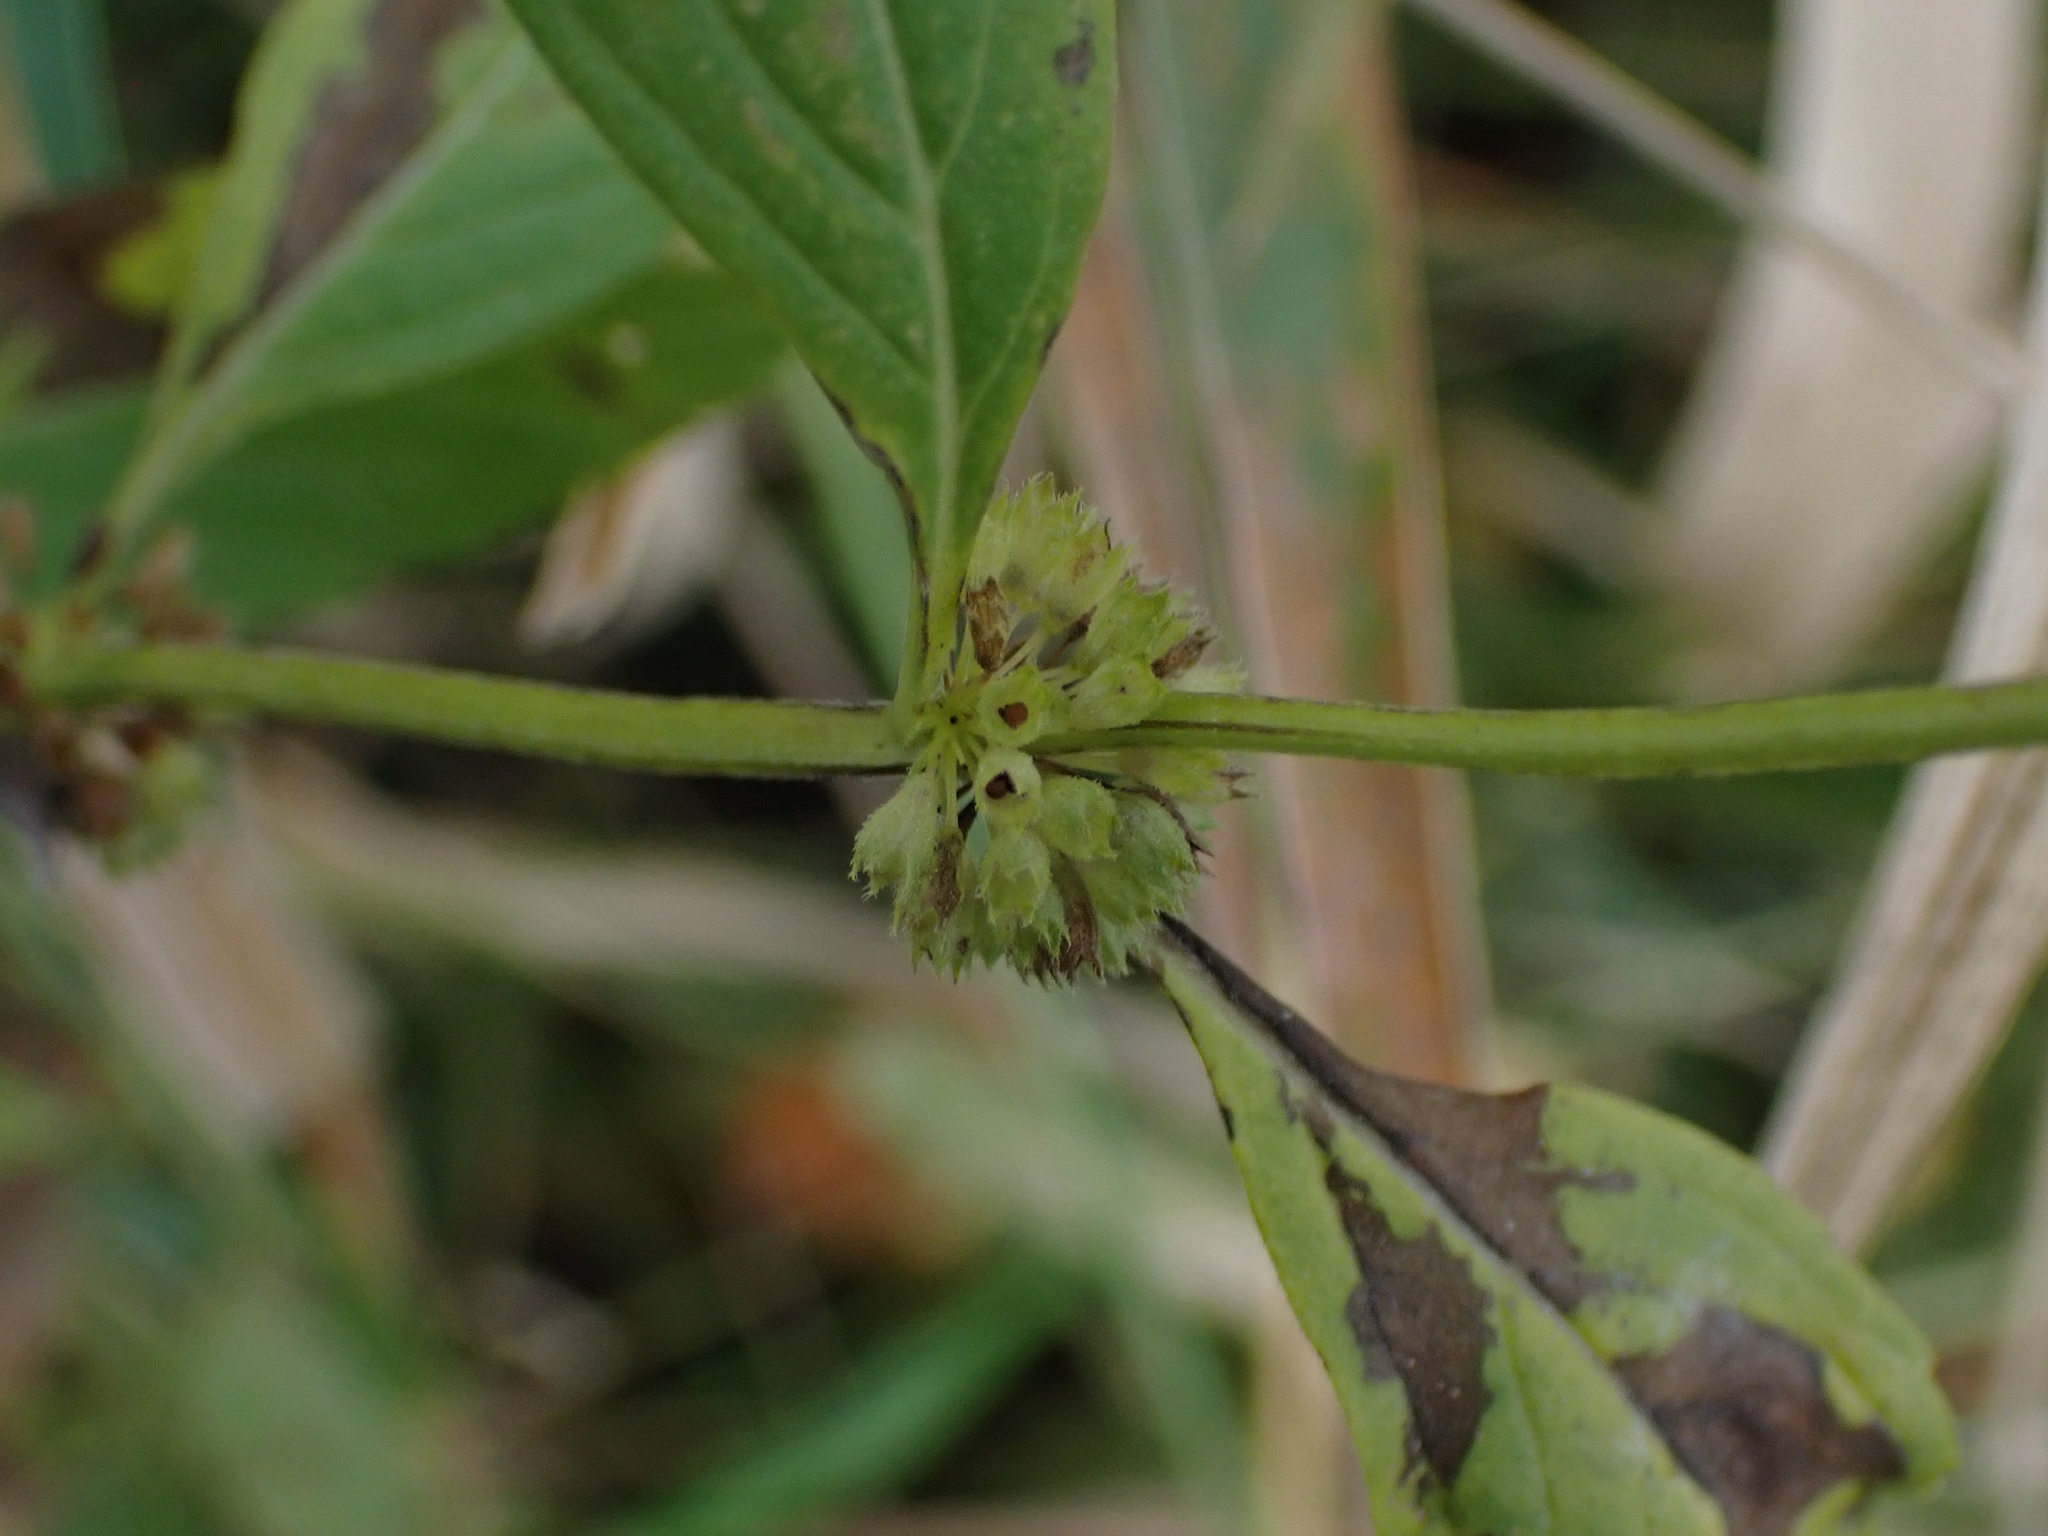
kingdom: Plantae
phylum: Tracheophyta
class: Magnoliopsida
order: Lamiales
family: Lamiaceae
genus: Mentha
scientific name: Mentha canadensis
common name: American corn mint
